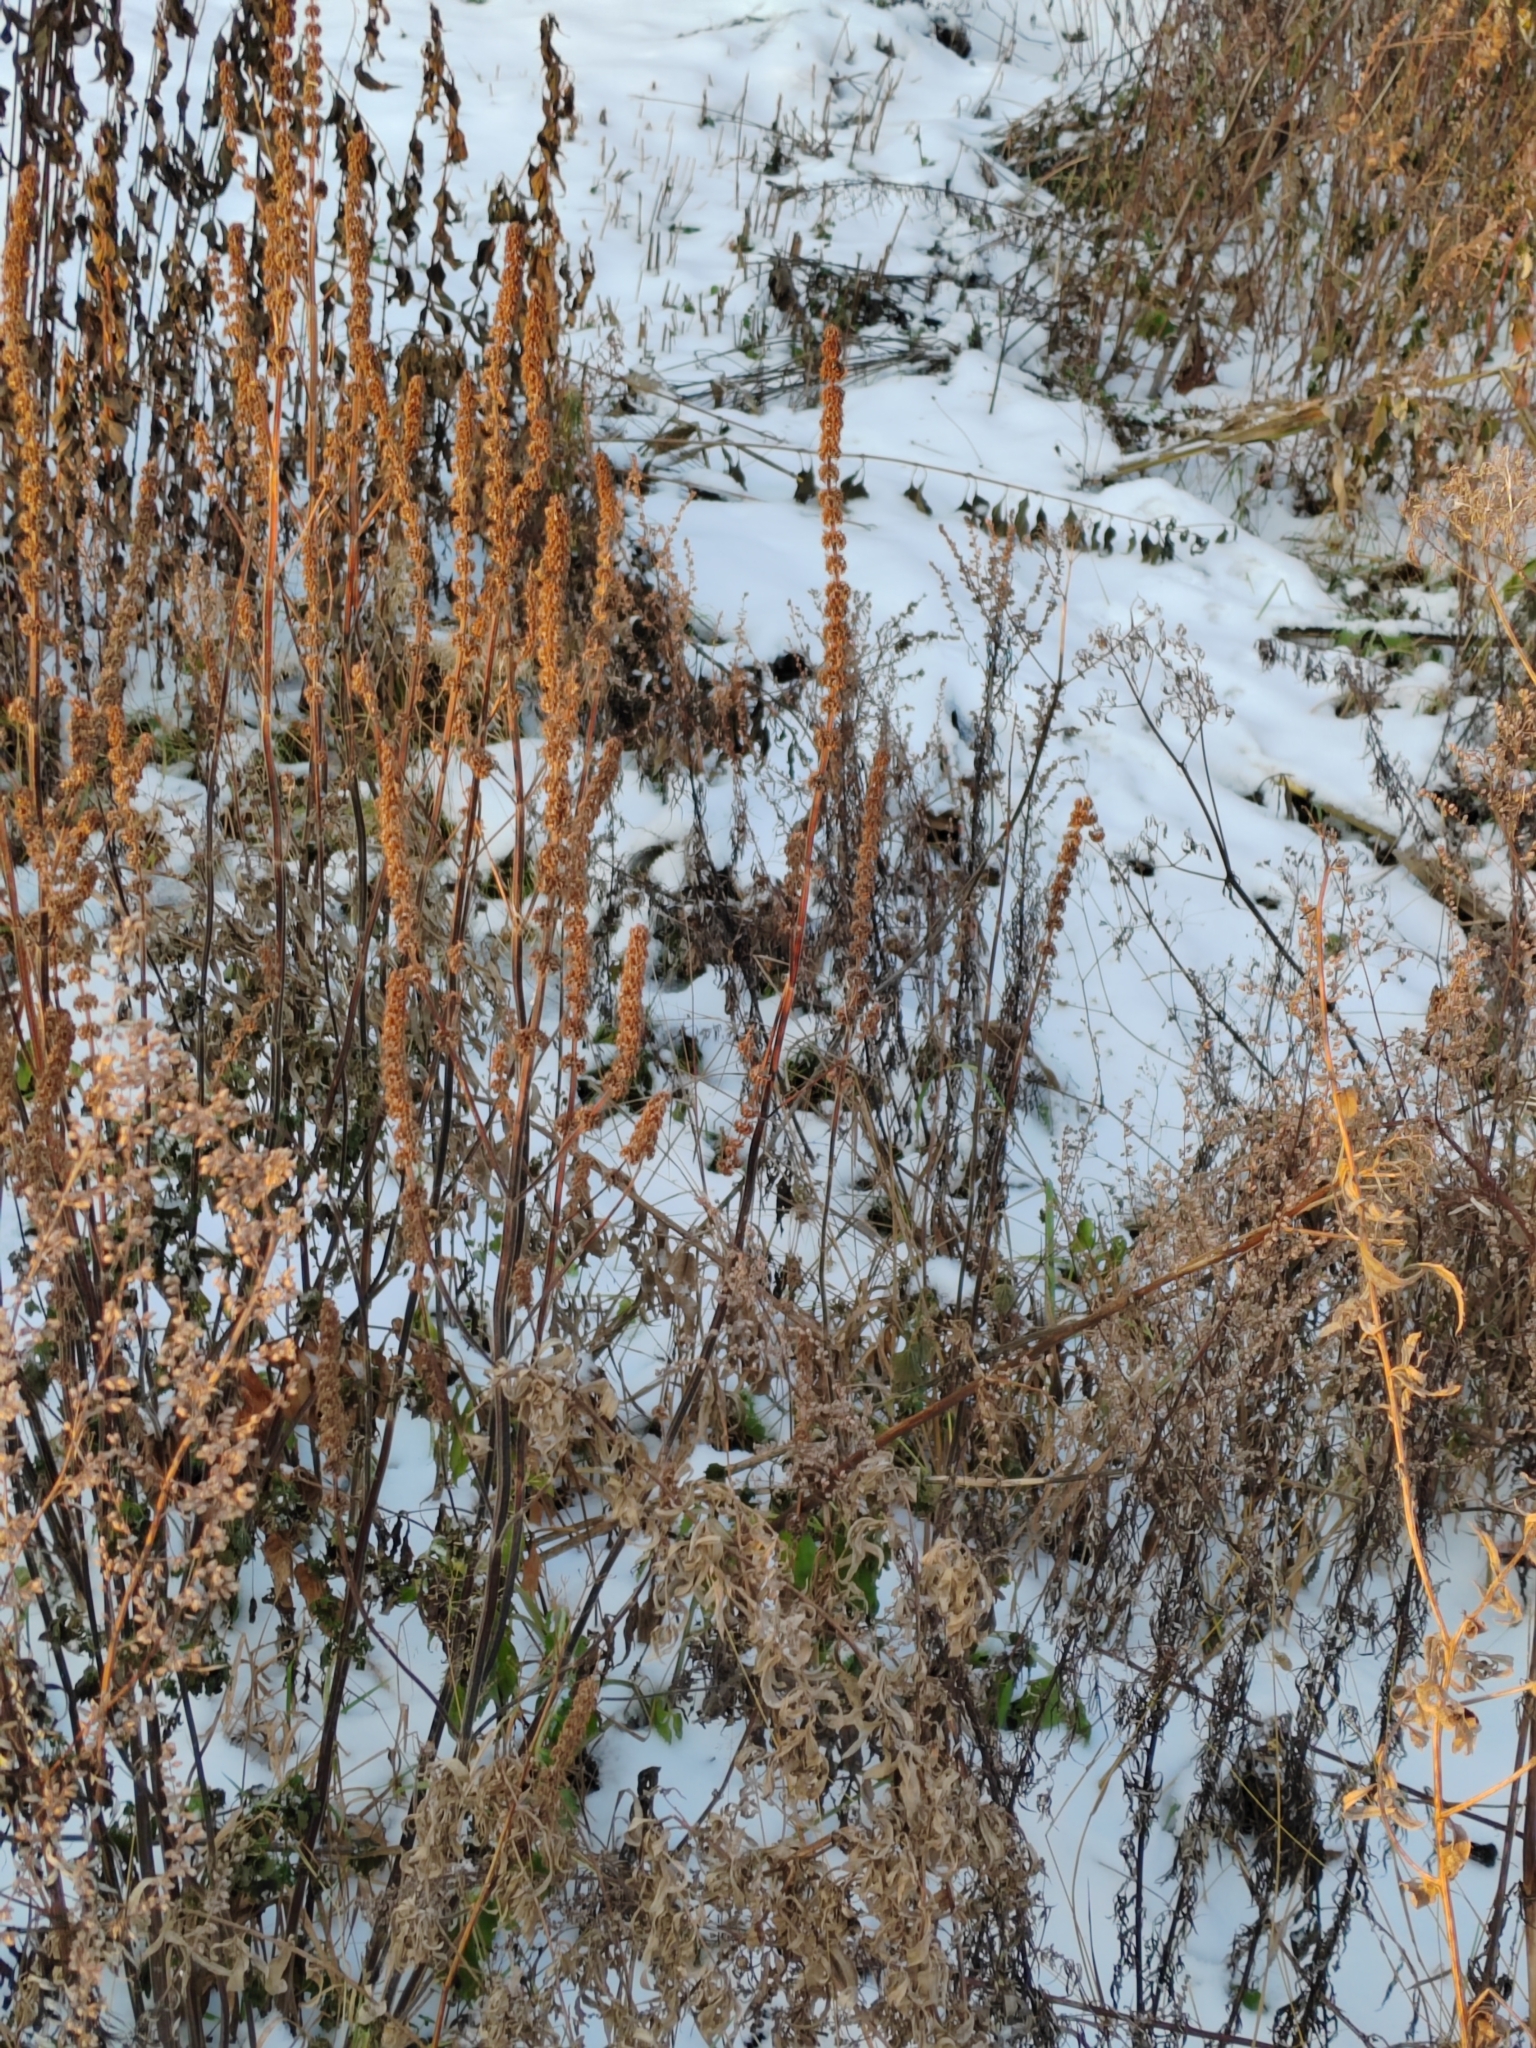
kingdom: Plantae
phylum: Tracheophyta
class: Magnoliopsida
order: Lamiales
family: Lamiaceae
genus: Leonurus
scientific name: Leonurus quinquelobatus
